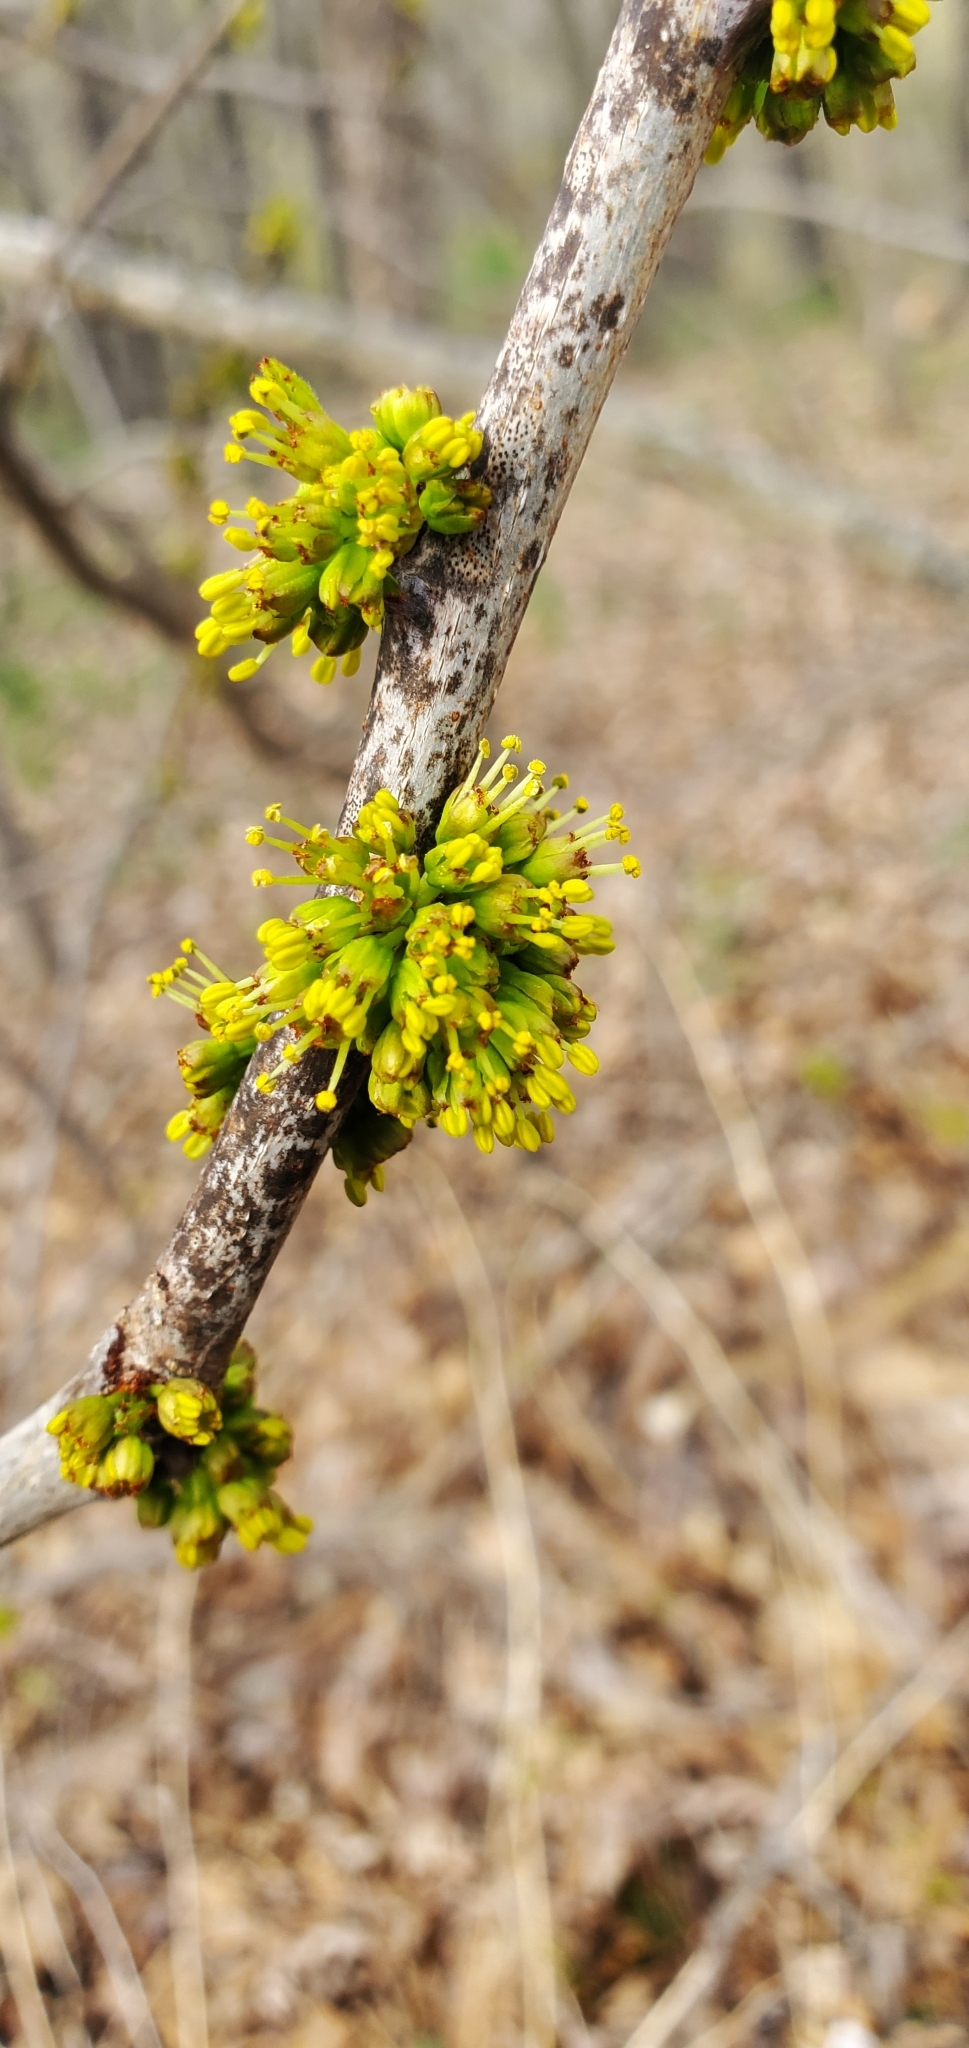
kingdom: Plantae
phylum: Tracheophyta
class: Magnoliopsida
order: Sapindales
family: Rutaceae
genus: Zanthoxylum
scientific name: Zanthoxylum americanum
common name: Northern prickly-ash
